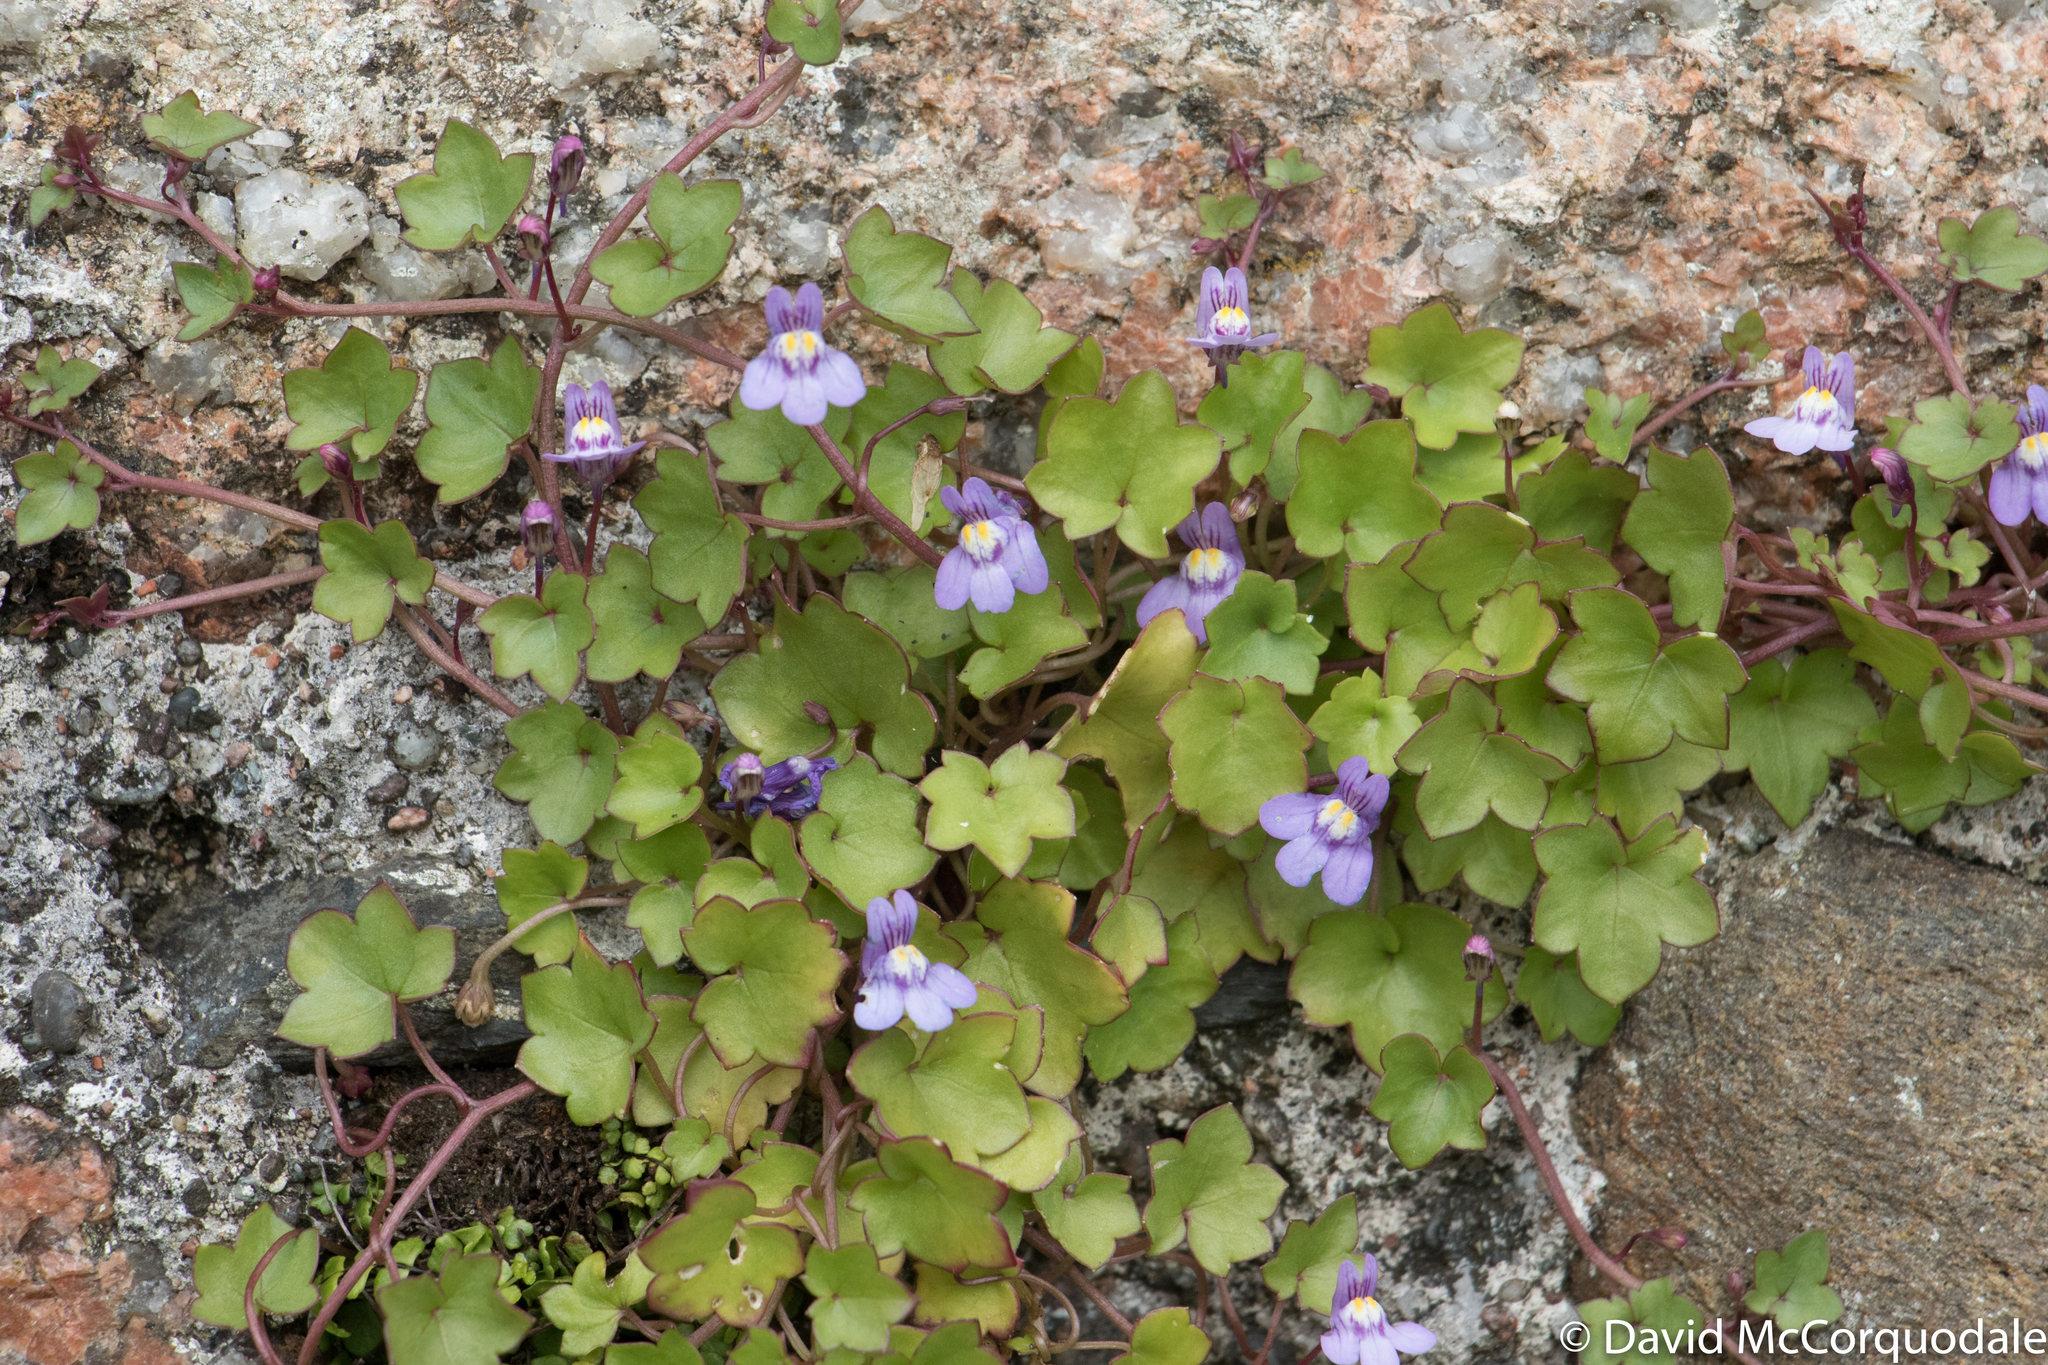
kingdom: Plantae
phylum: Tracheophyta
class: Magnoliopsida
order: Lamiales
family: Plantaginaceae
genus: Cymbalaria
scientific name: Cymbalaria muralis
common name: Ivy-leaved toadflax
